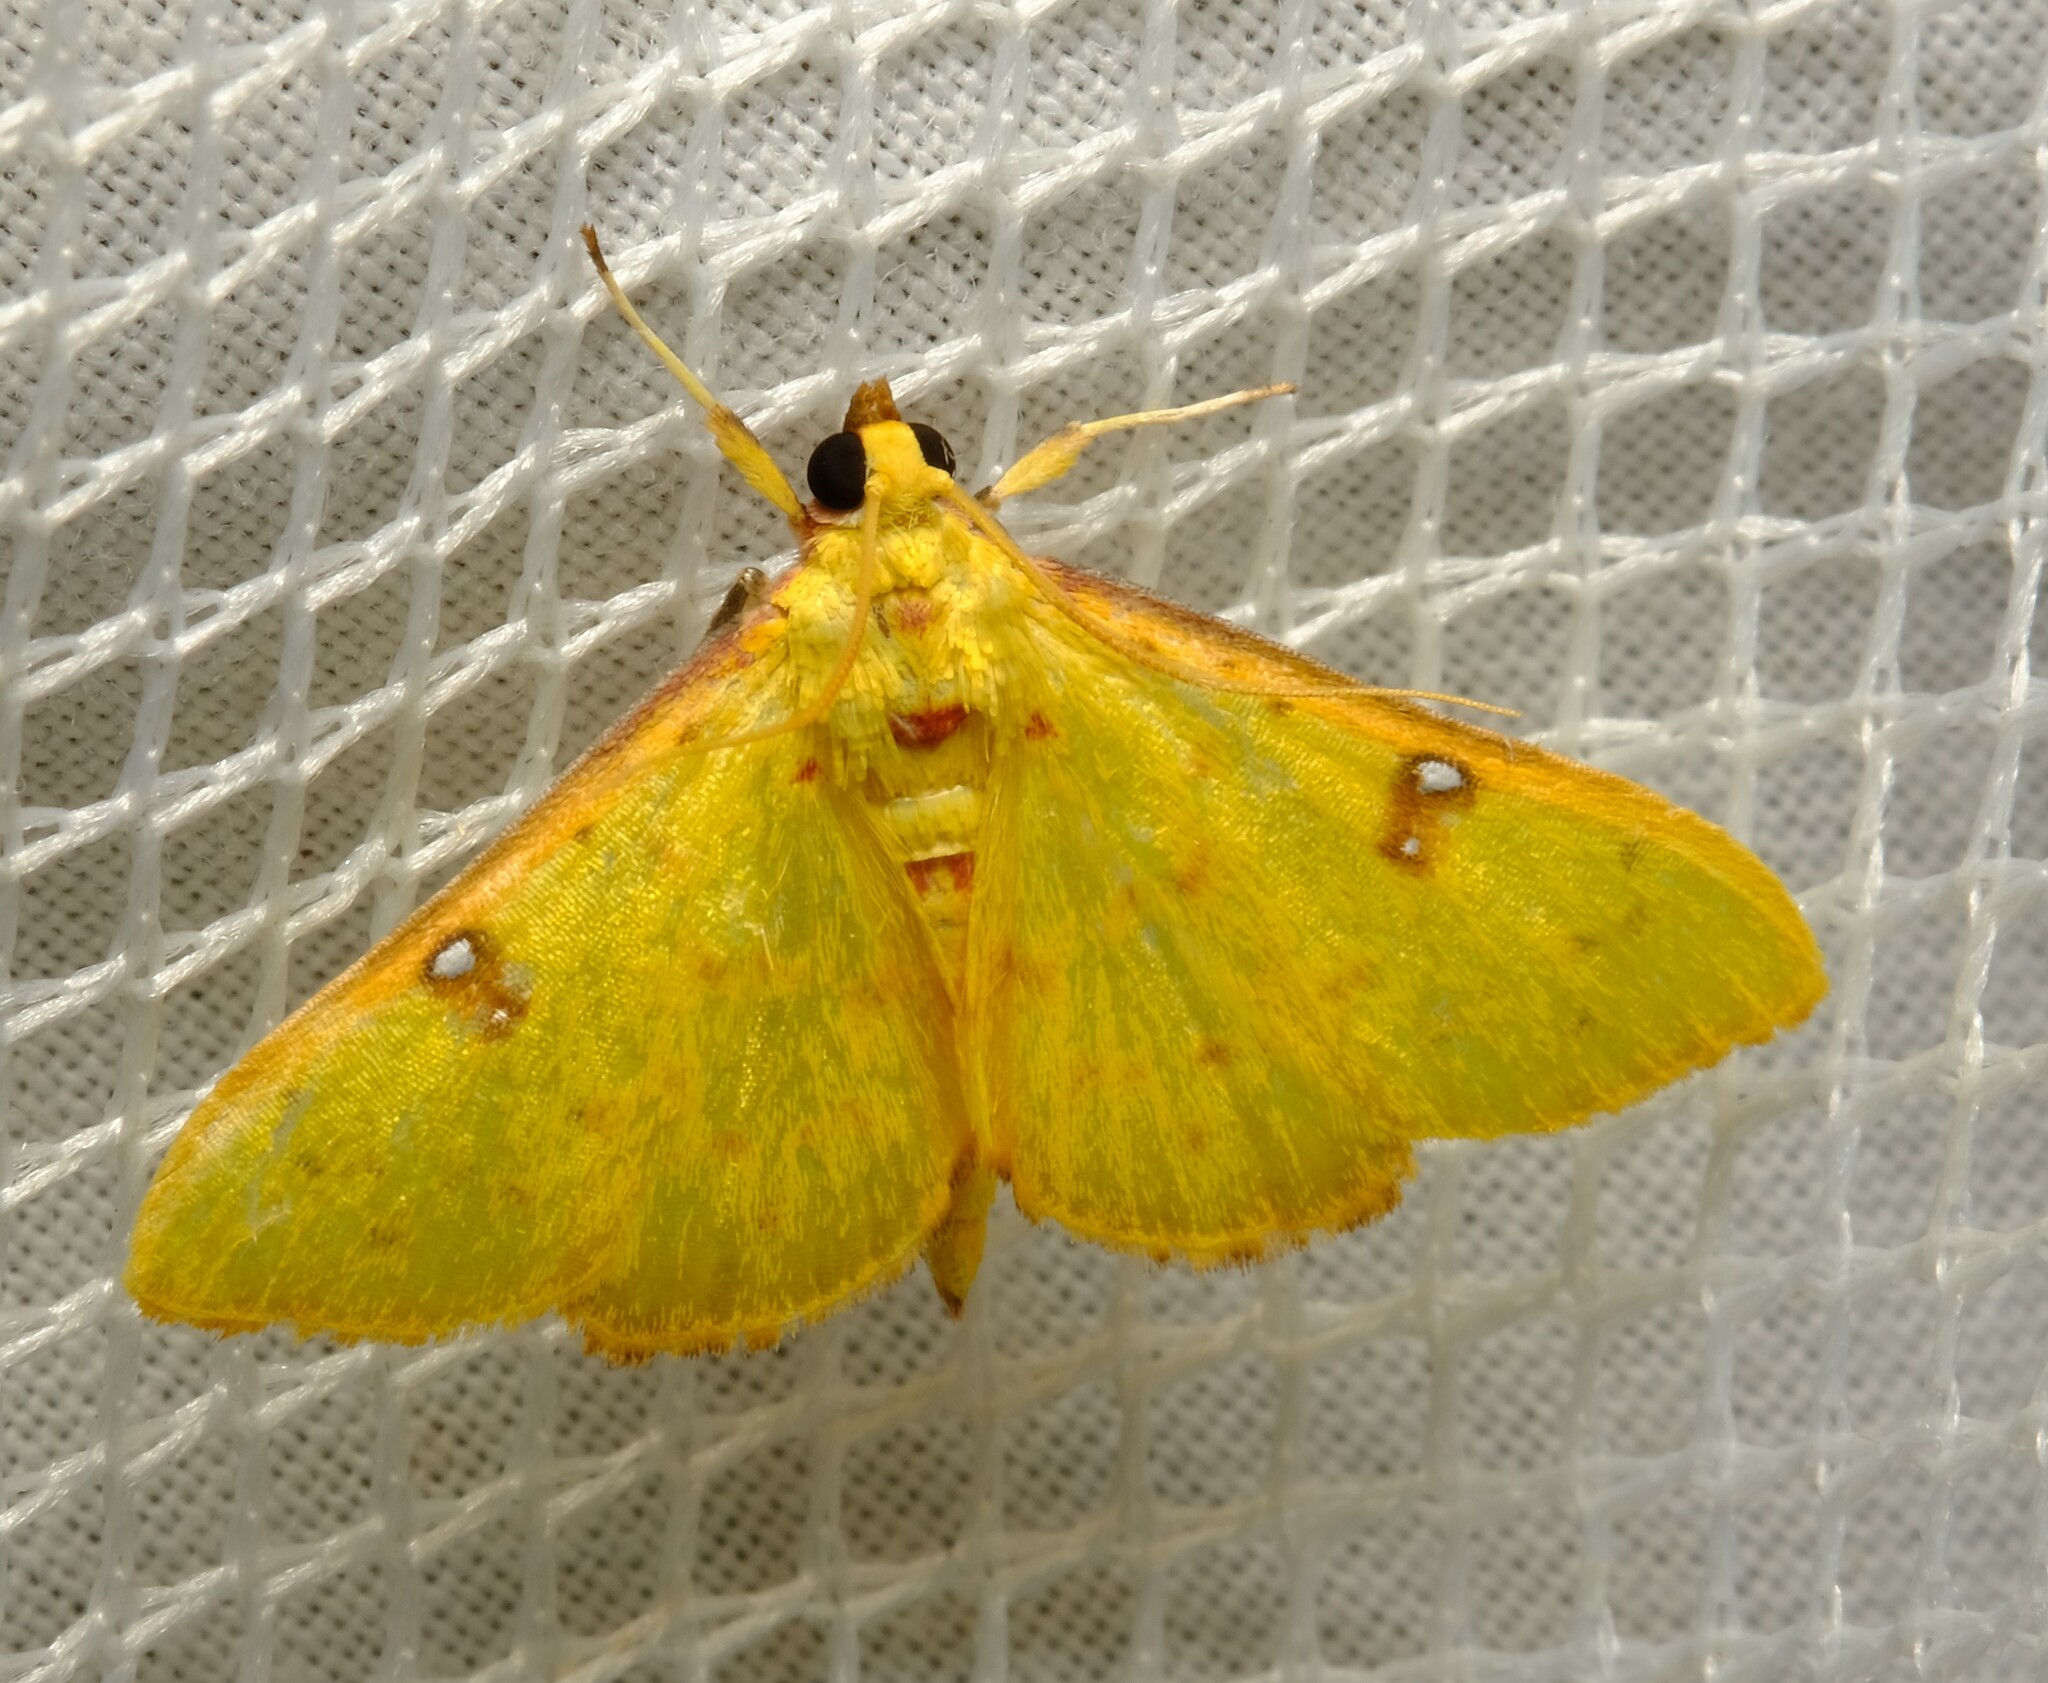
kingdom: Animalia
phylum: Arthropoda
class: Insecta
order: Lepidoptera
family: Crambidae
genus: Archernis
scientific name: Archernis callixantha
